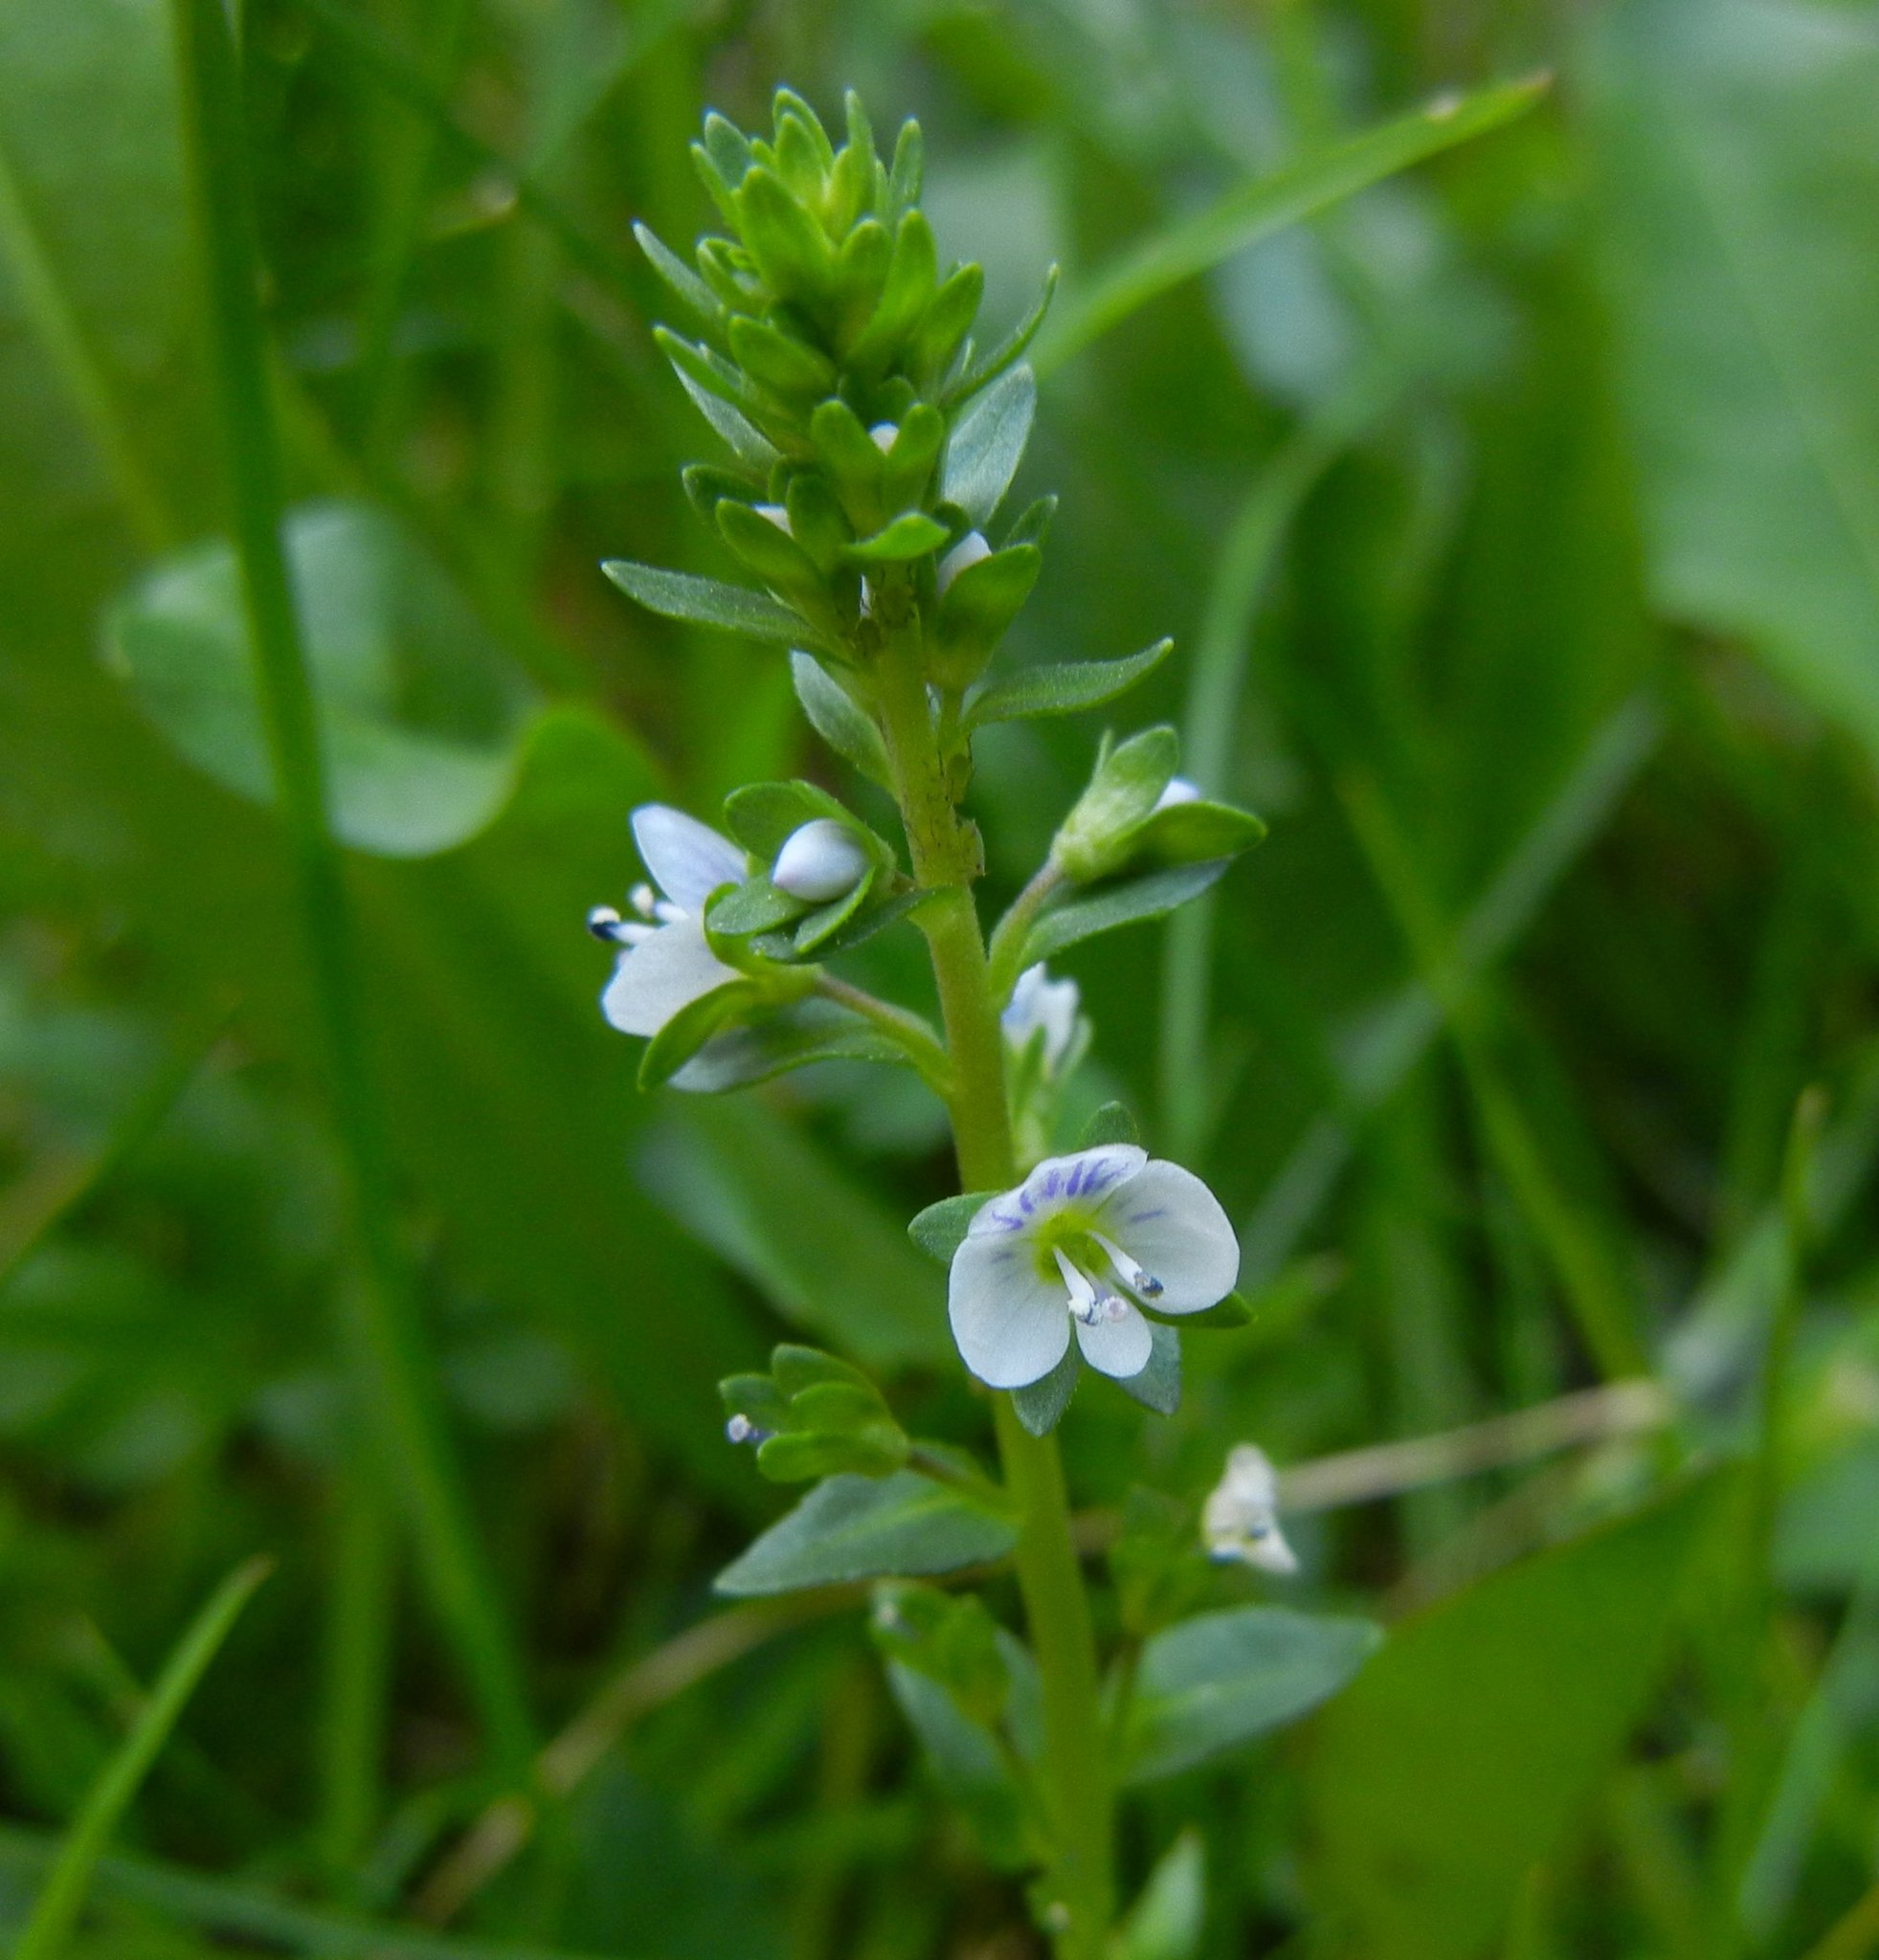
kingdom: Plantae
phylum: Tracheophyta
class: Magnoliopsida
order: Lamiales
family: Plantaginaceae
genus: Veronica
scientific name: Veronica serpyllifolia
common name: Thyme-leaved speedwell
